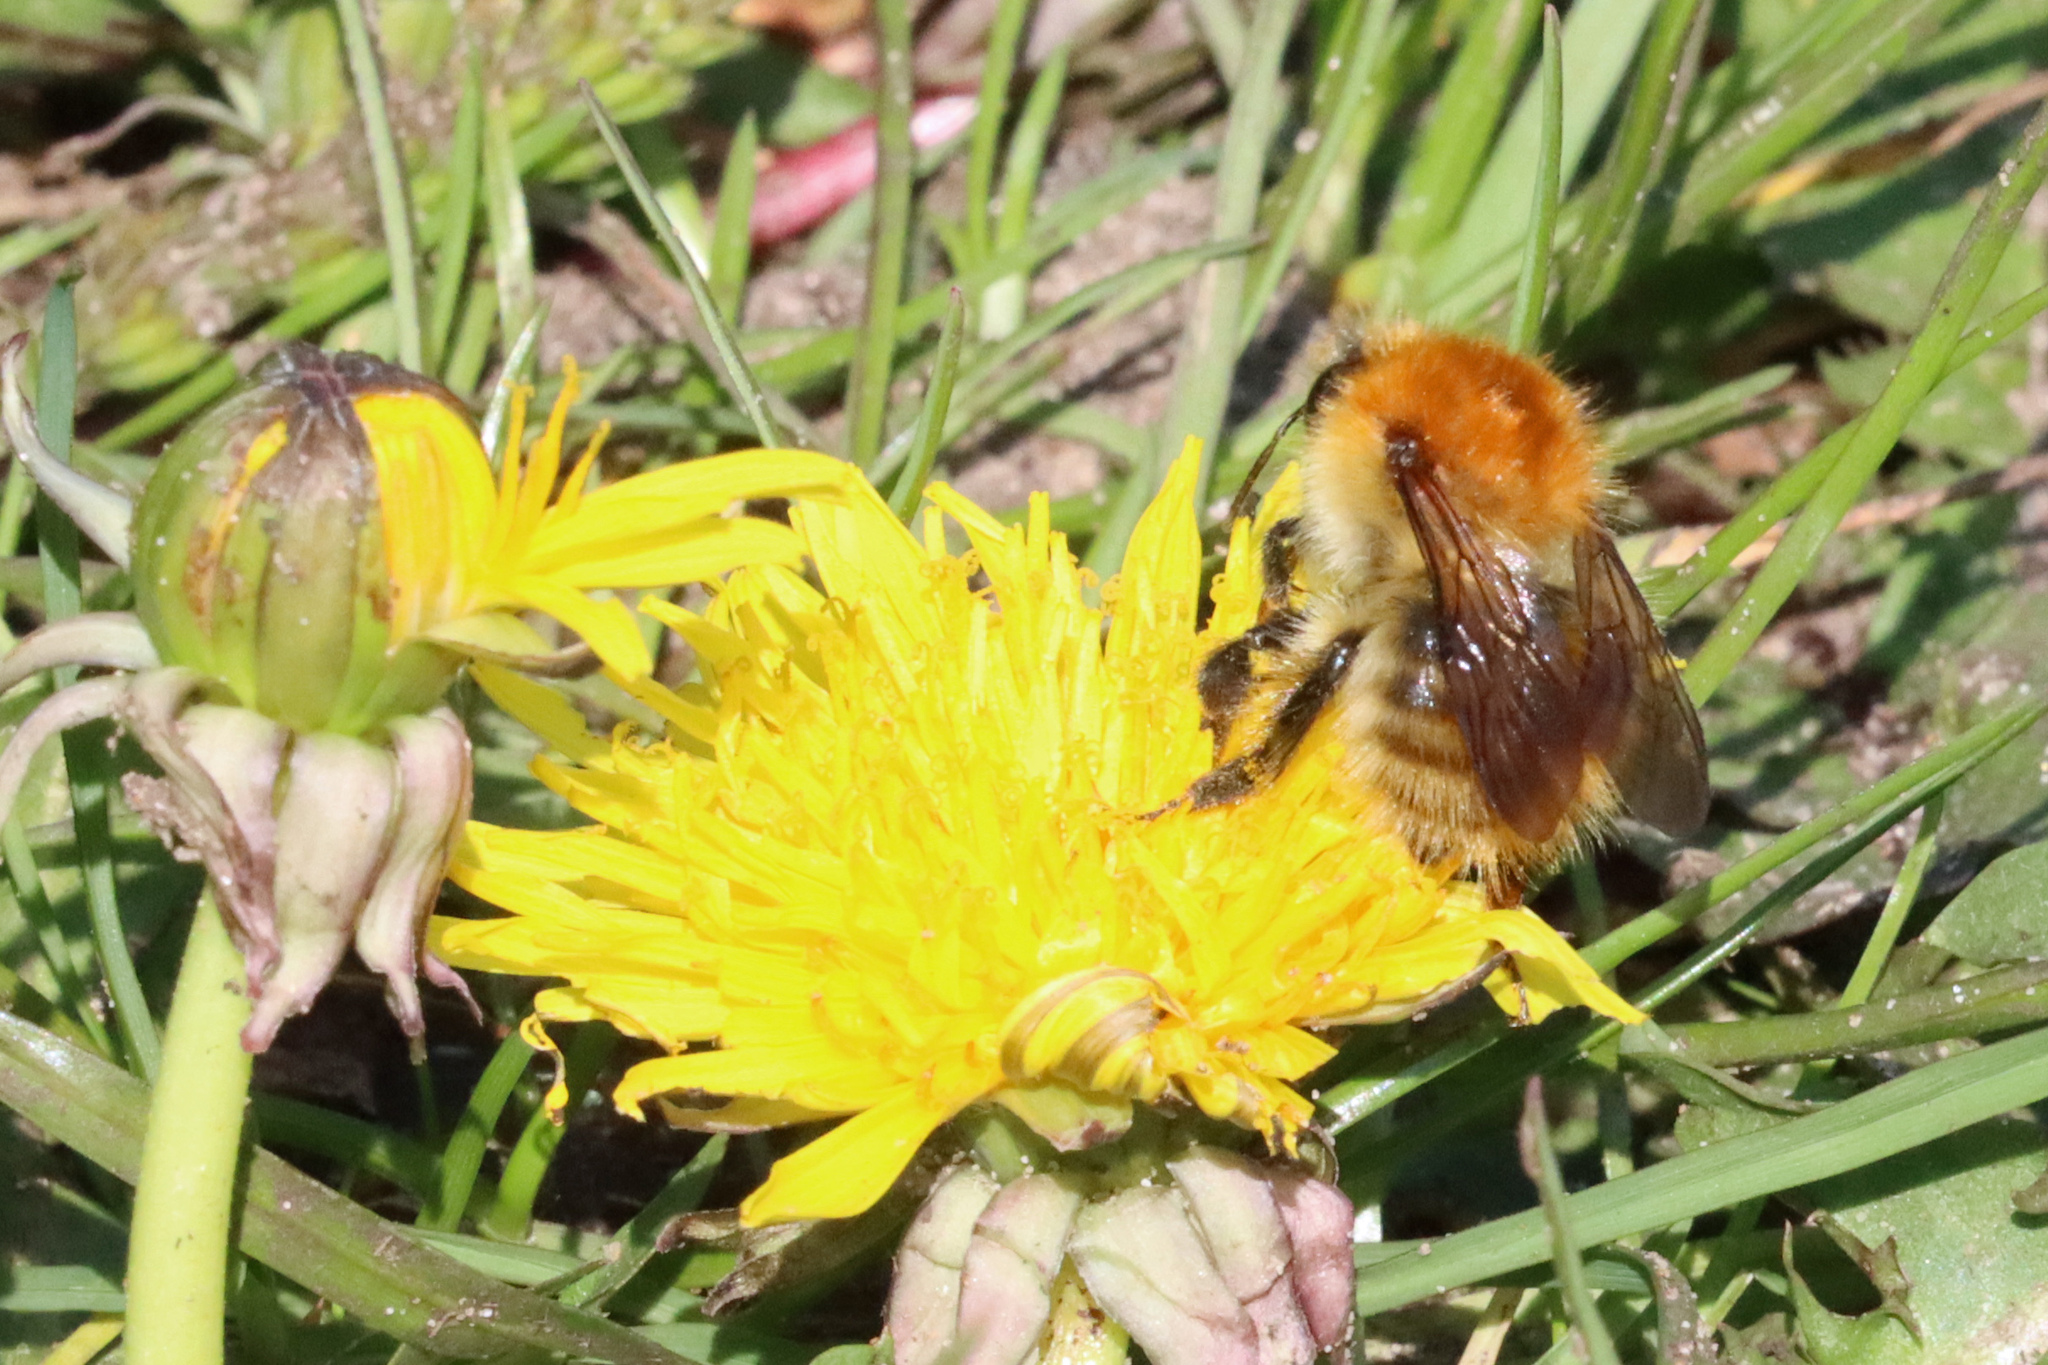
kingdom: Animalia
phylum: Arthropoda
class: Insecta
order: Hymenoptera
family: Apidae
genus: Bombus
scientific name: Bombus pascuorum
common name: Common carder bee
